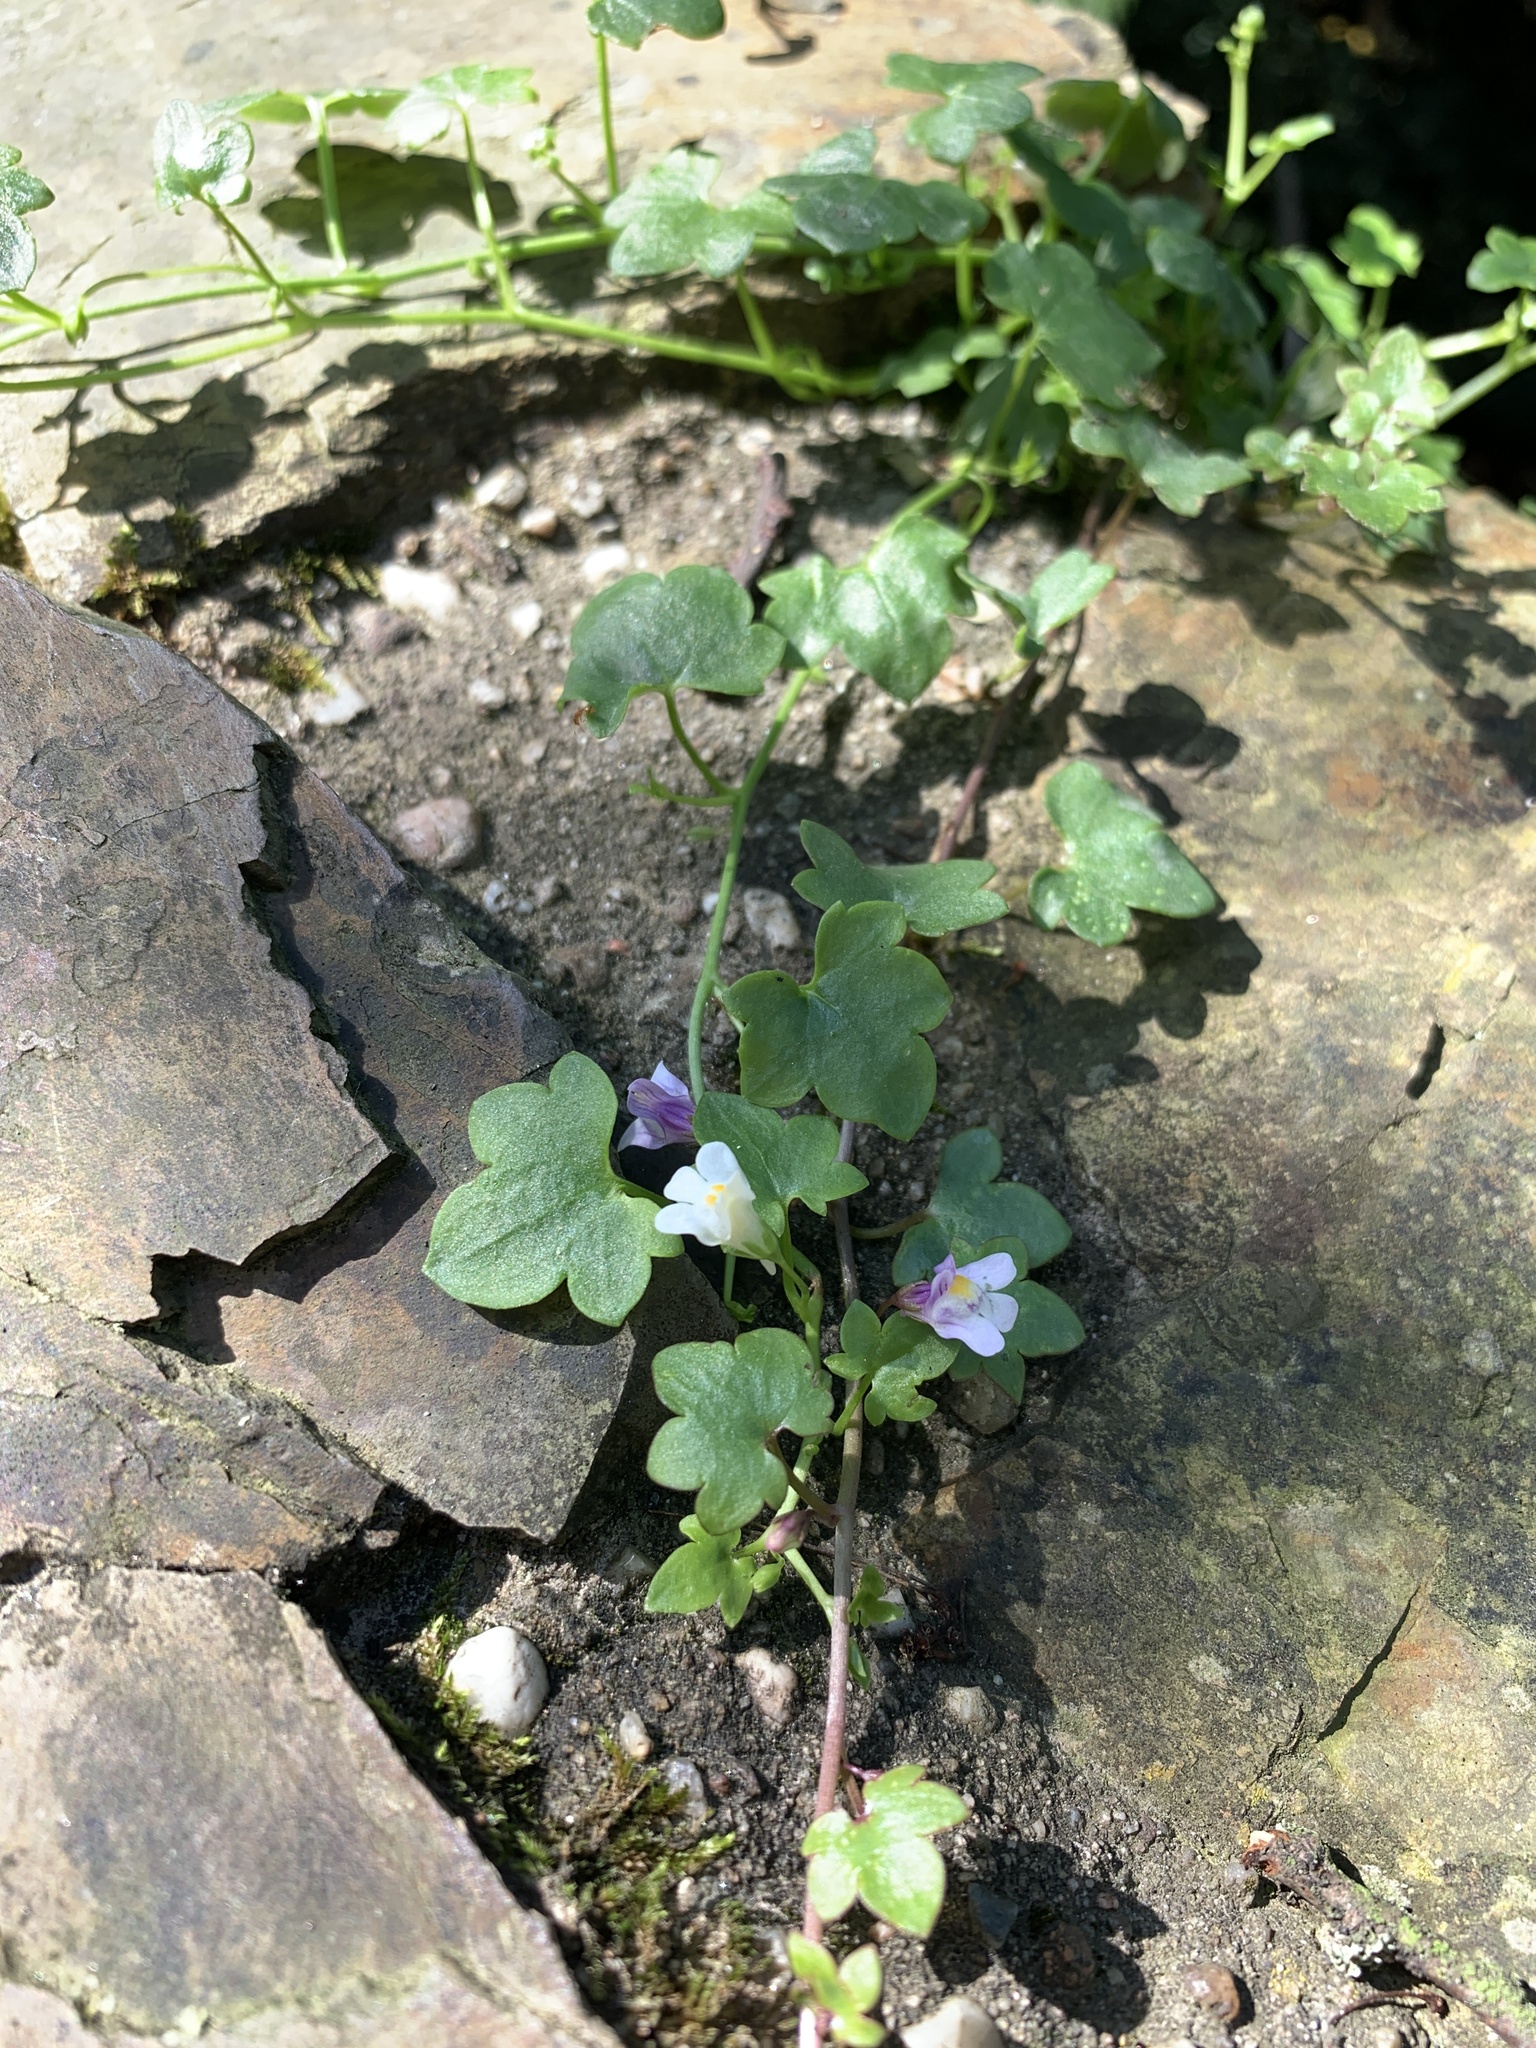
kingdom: Plantae
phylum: Tracheophyta
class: Magnoliopsida
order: Lamiales
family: Plantaginaceae
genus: Cymbalaria
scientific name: Cymbalaria muralis
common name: Ivy-leaved toadflax
